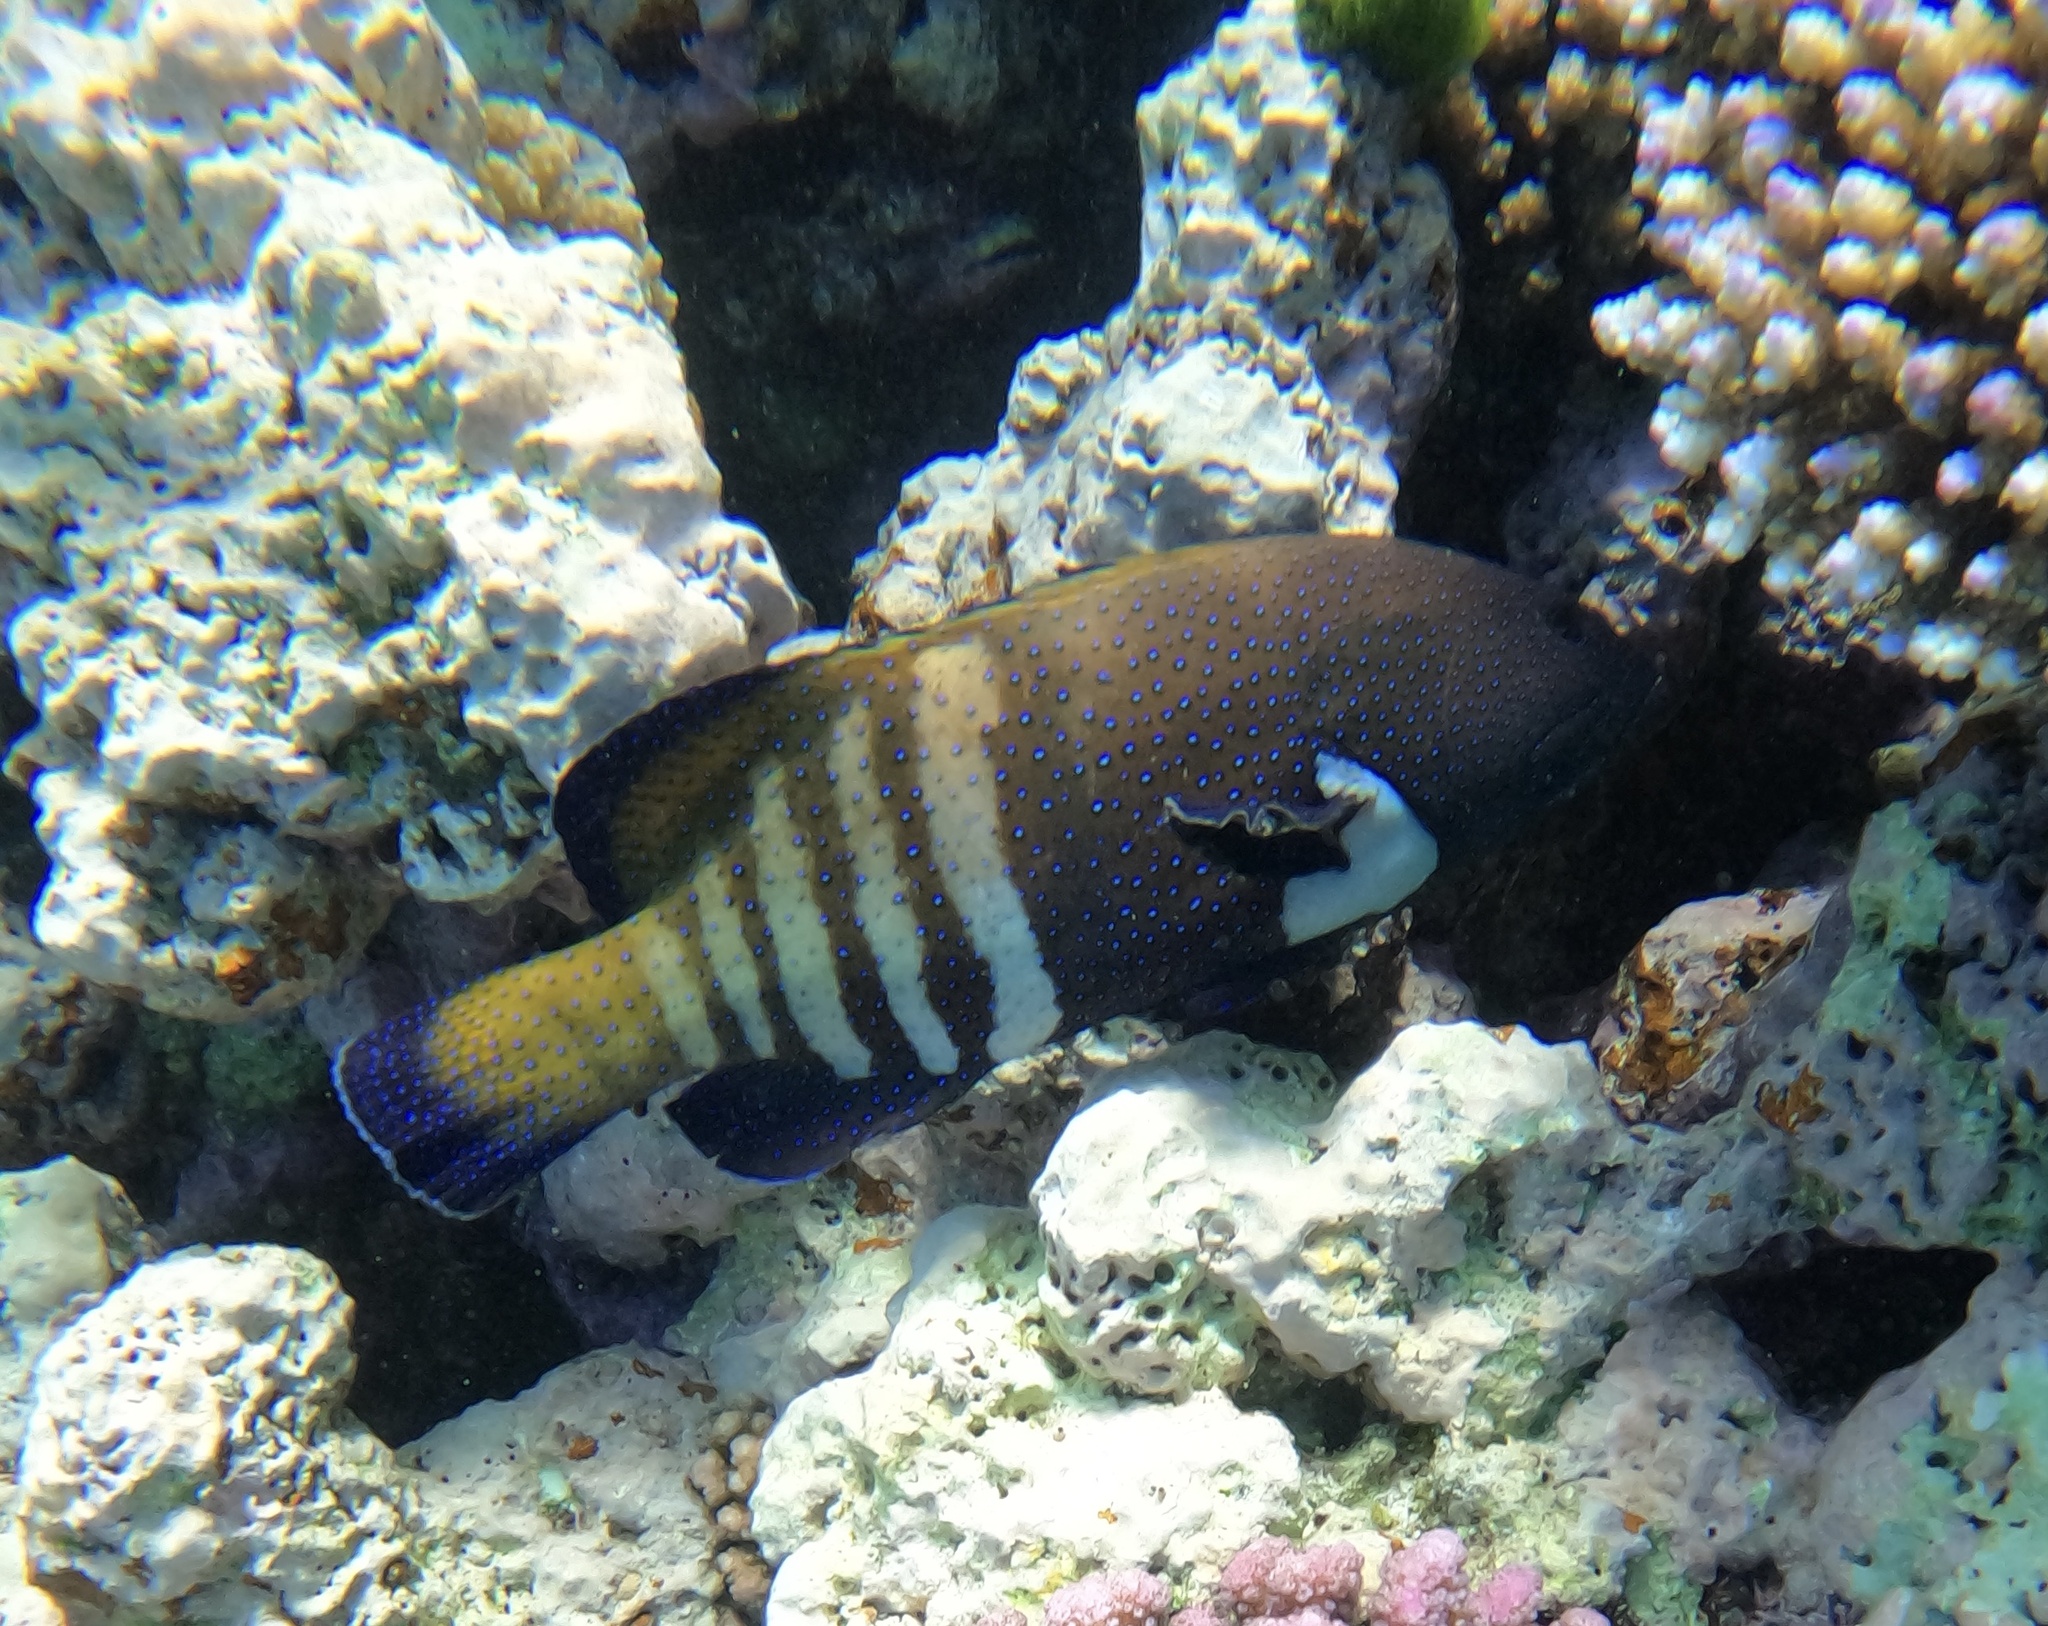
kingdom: Animalia
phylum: Chordata
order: Perciformes
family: Serranidae
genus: Cephalopholis
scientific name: Cephalopholis argus
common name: Peacock grouper
